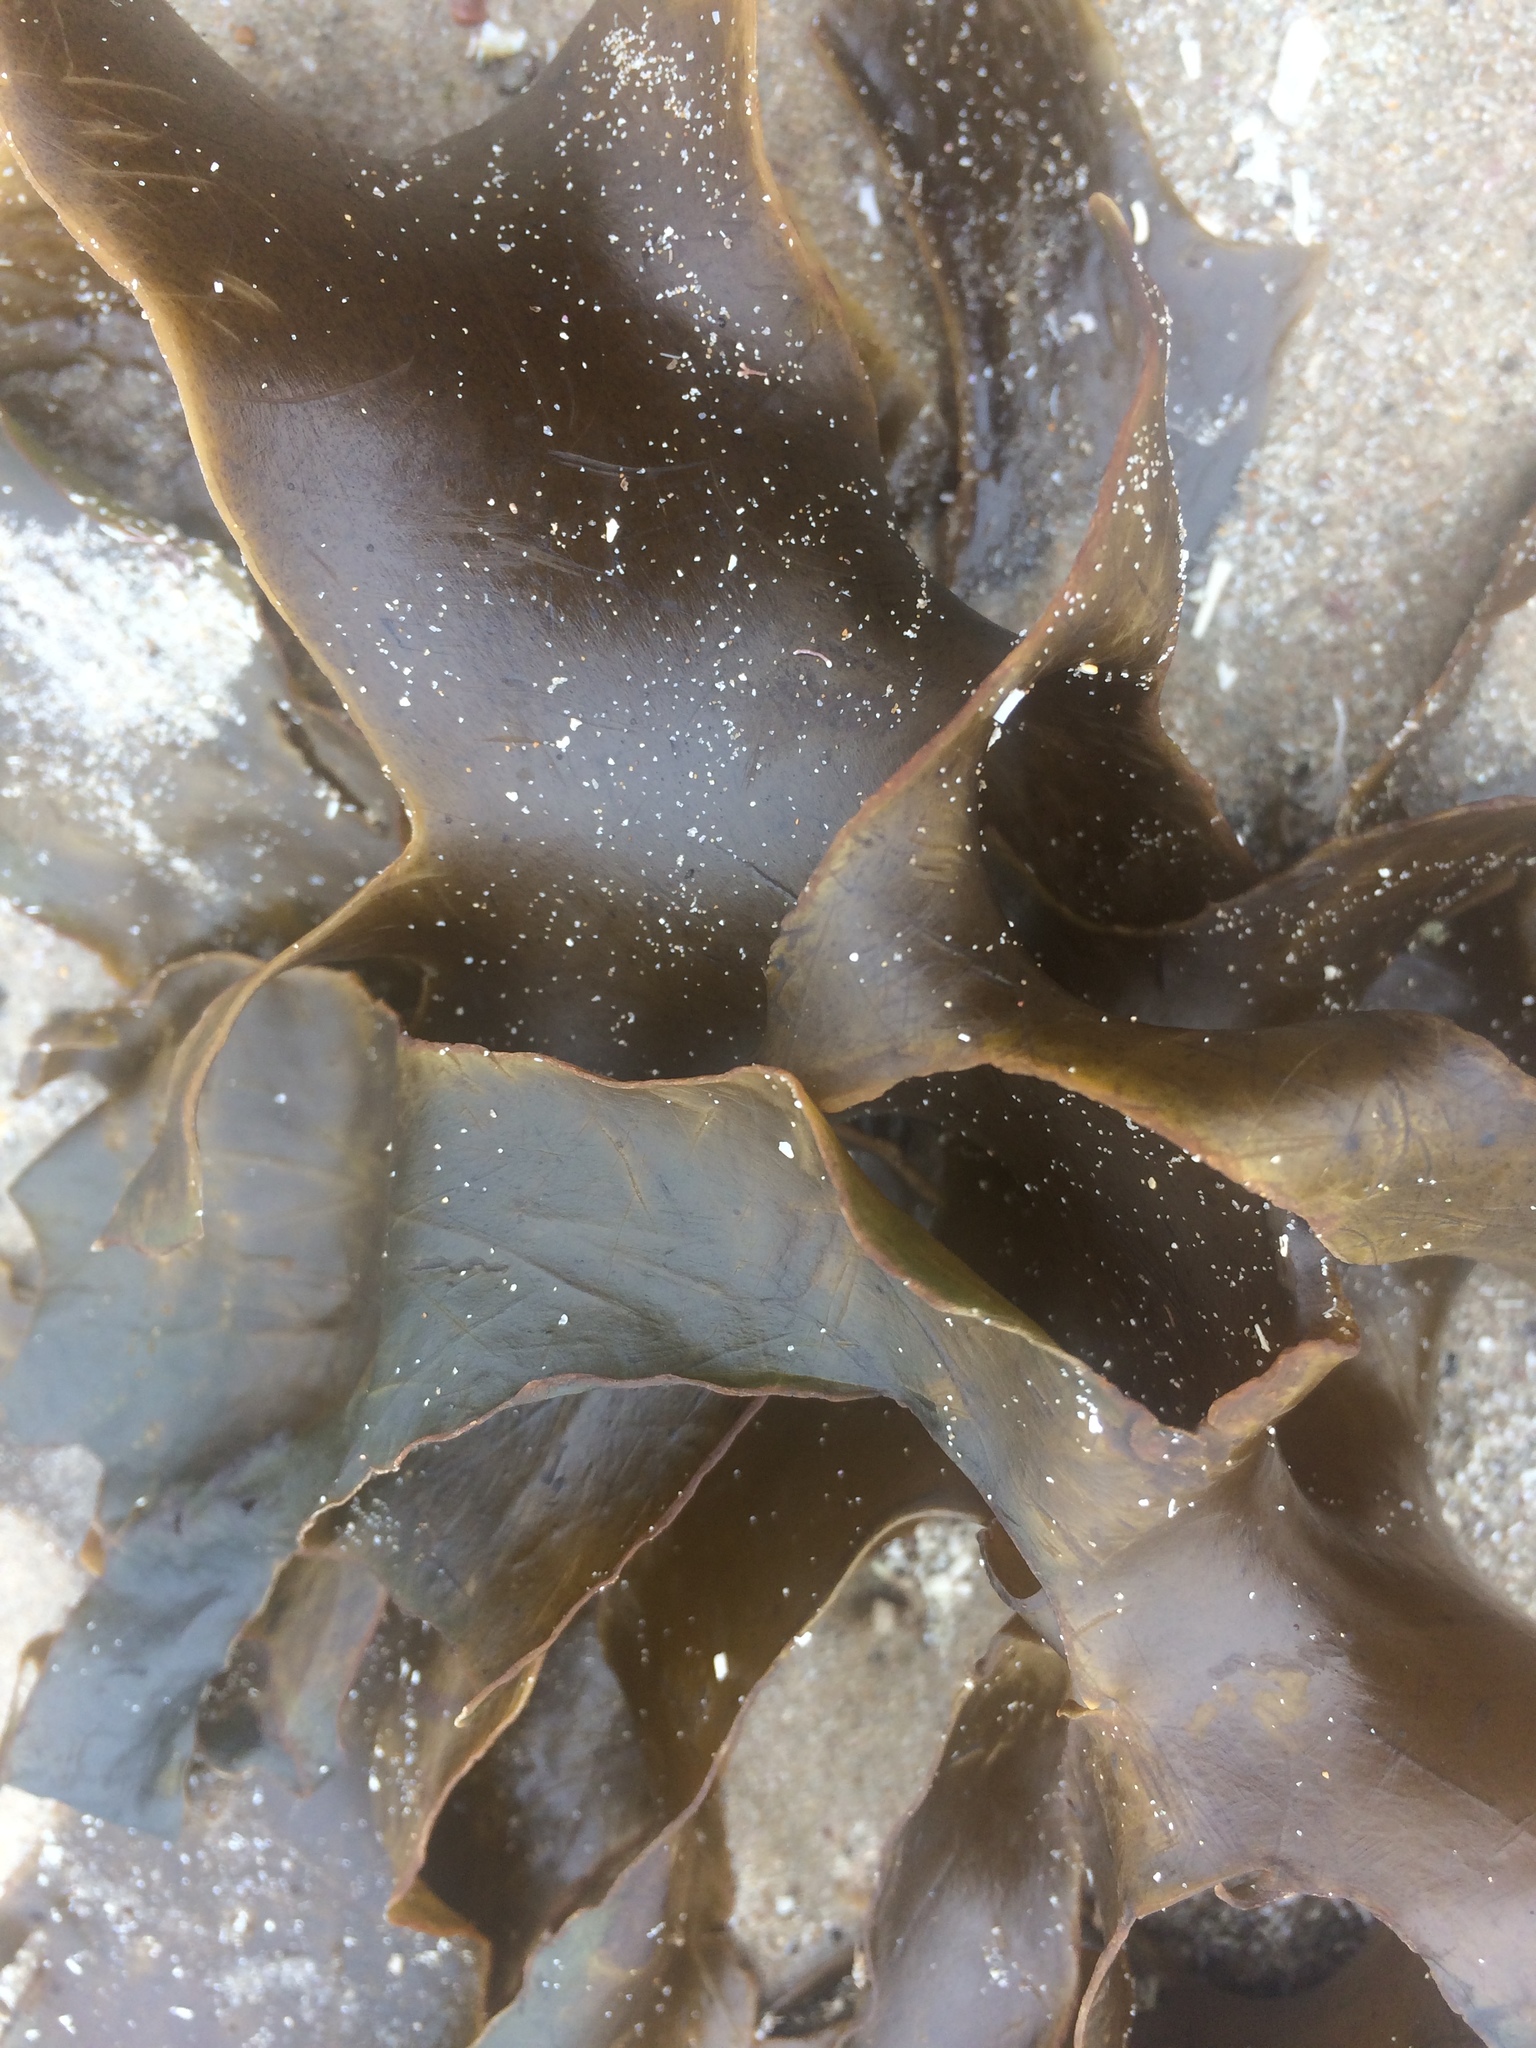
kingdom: Chromista
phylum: Ochrophyta
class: Phaeophyceae
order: Laminariales
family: Lessoniaceae
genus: Ecklonia
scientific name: Ecklonia radiata
